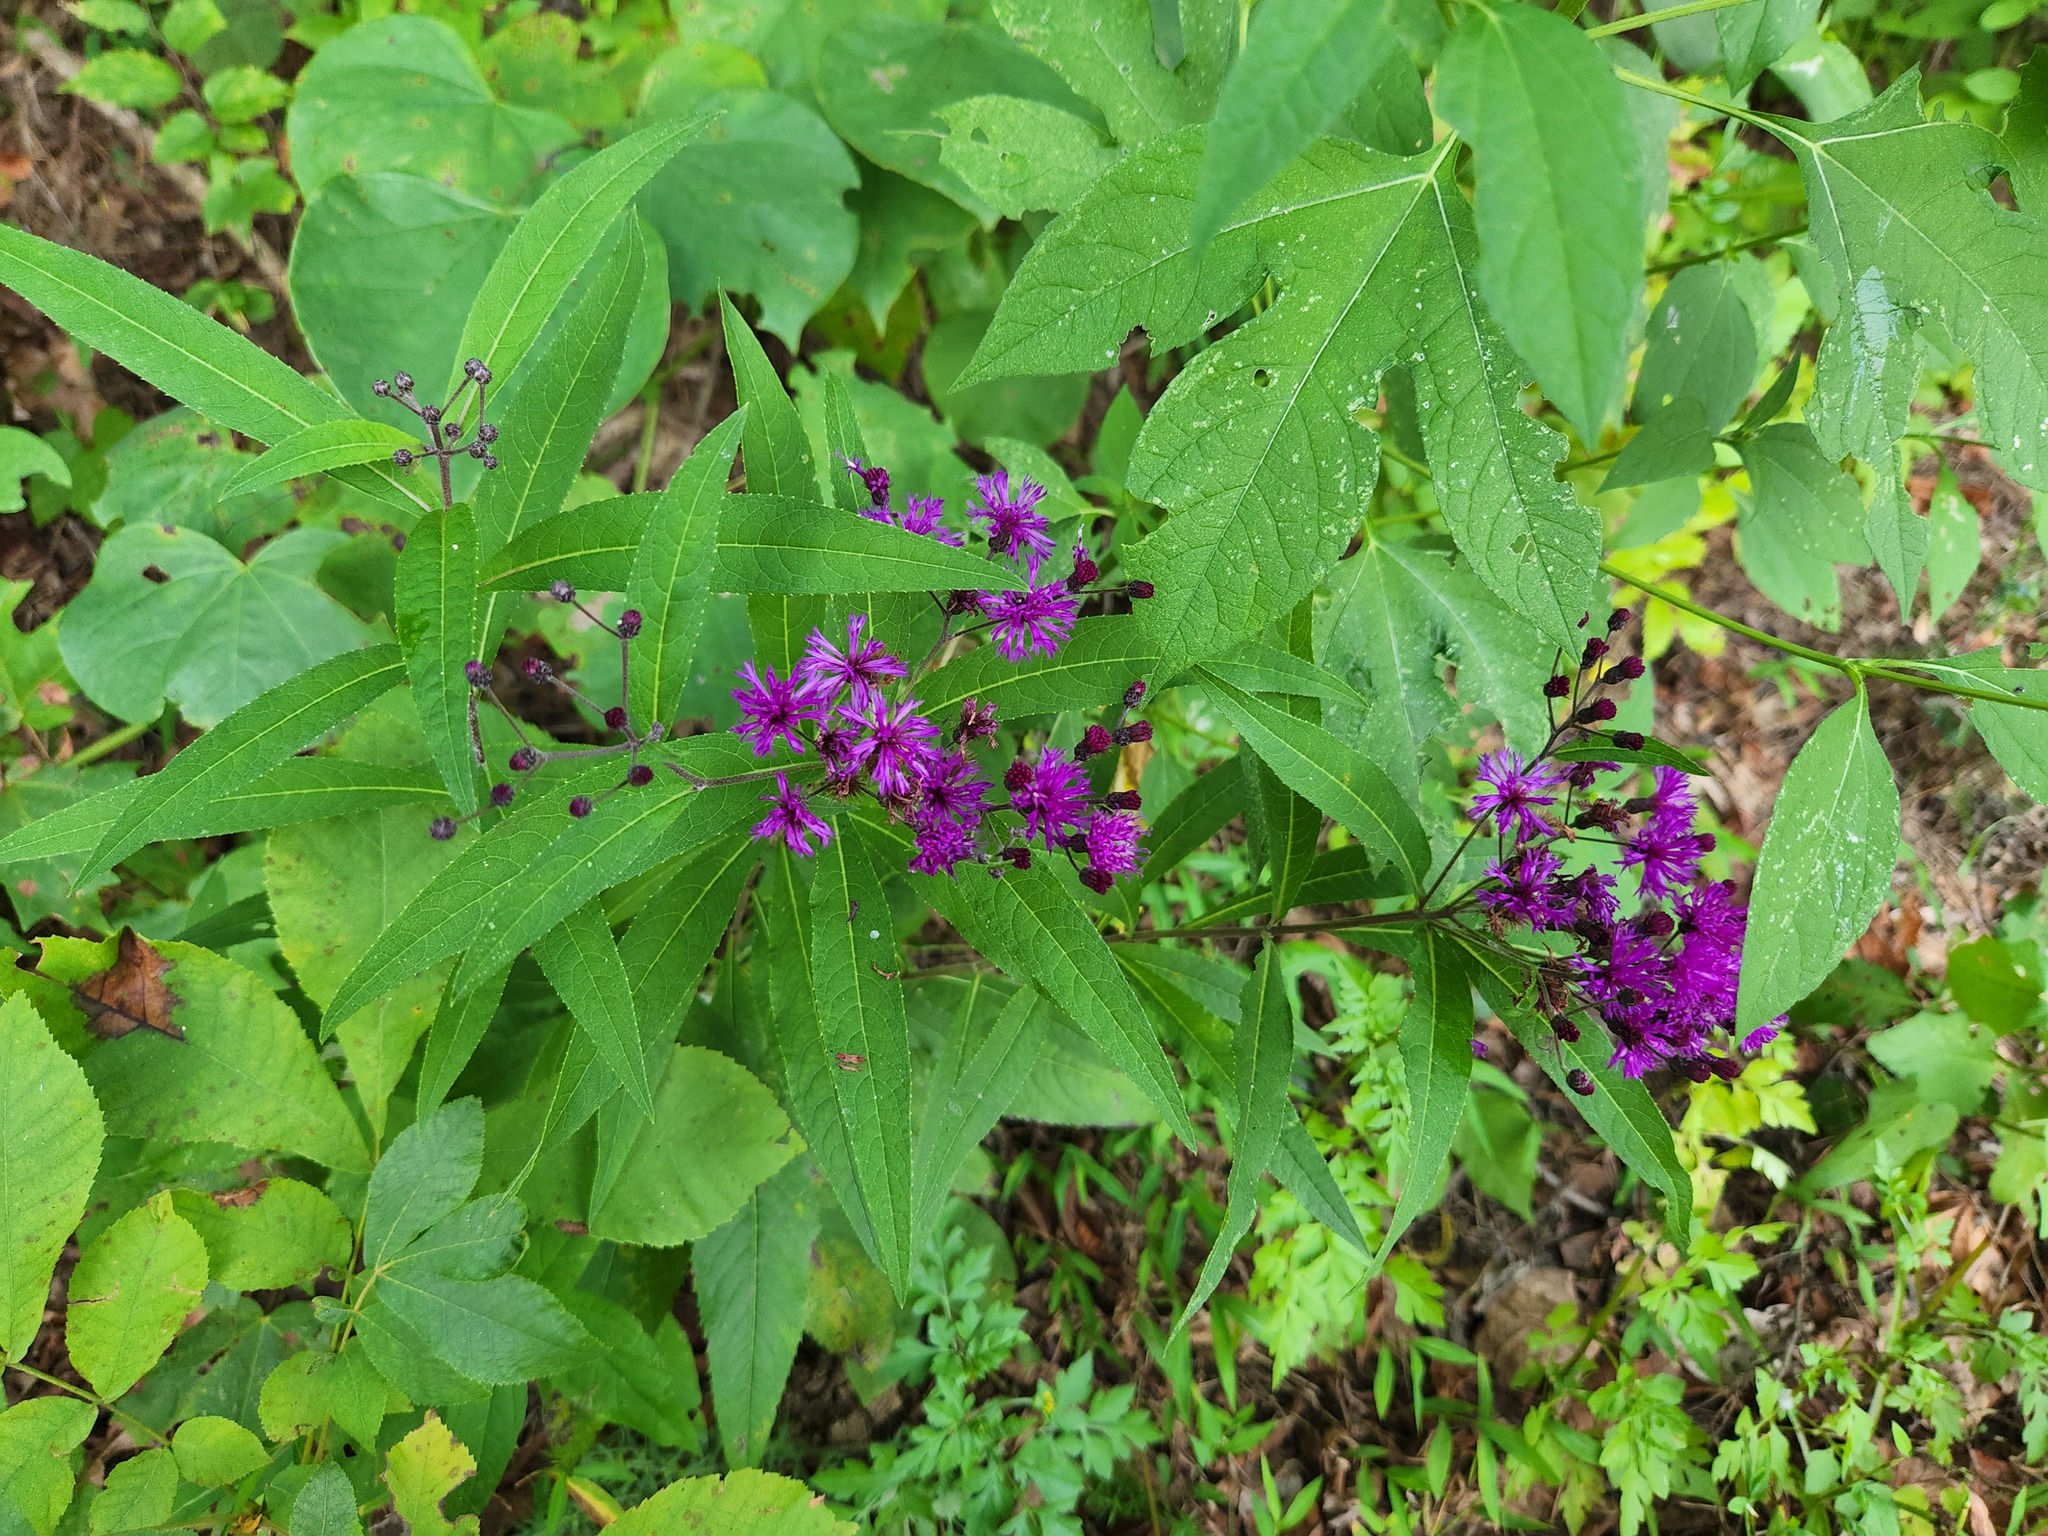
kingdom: Plantae
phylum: Tracheophyta
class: Magnoliopsida
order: Asterales
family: Asteraceae
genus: Vernonia
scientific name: Vernonia gigantea
